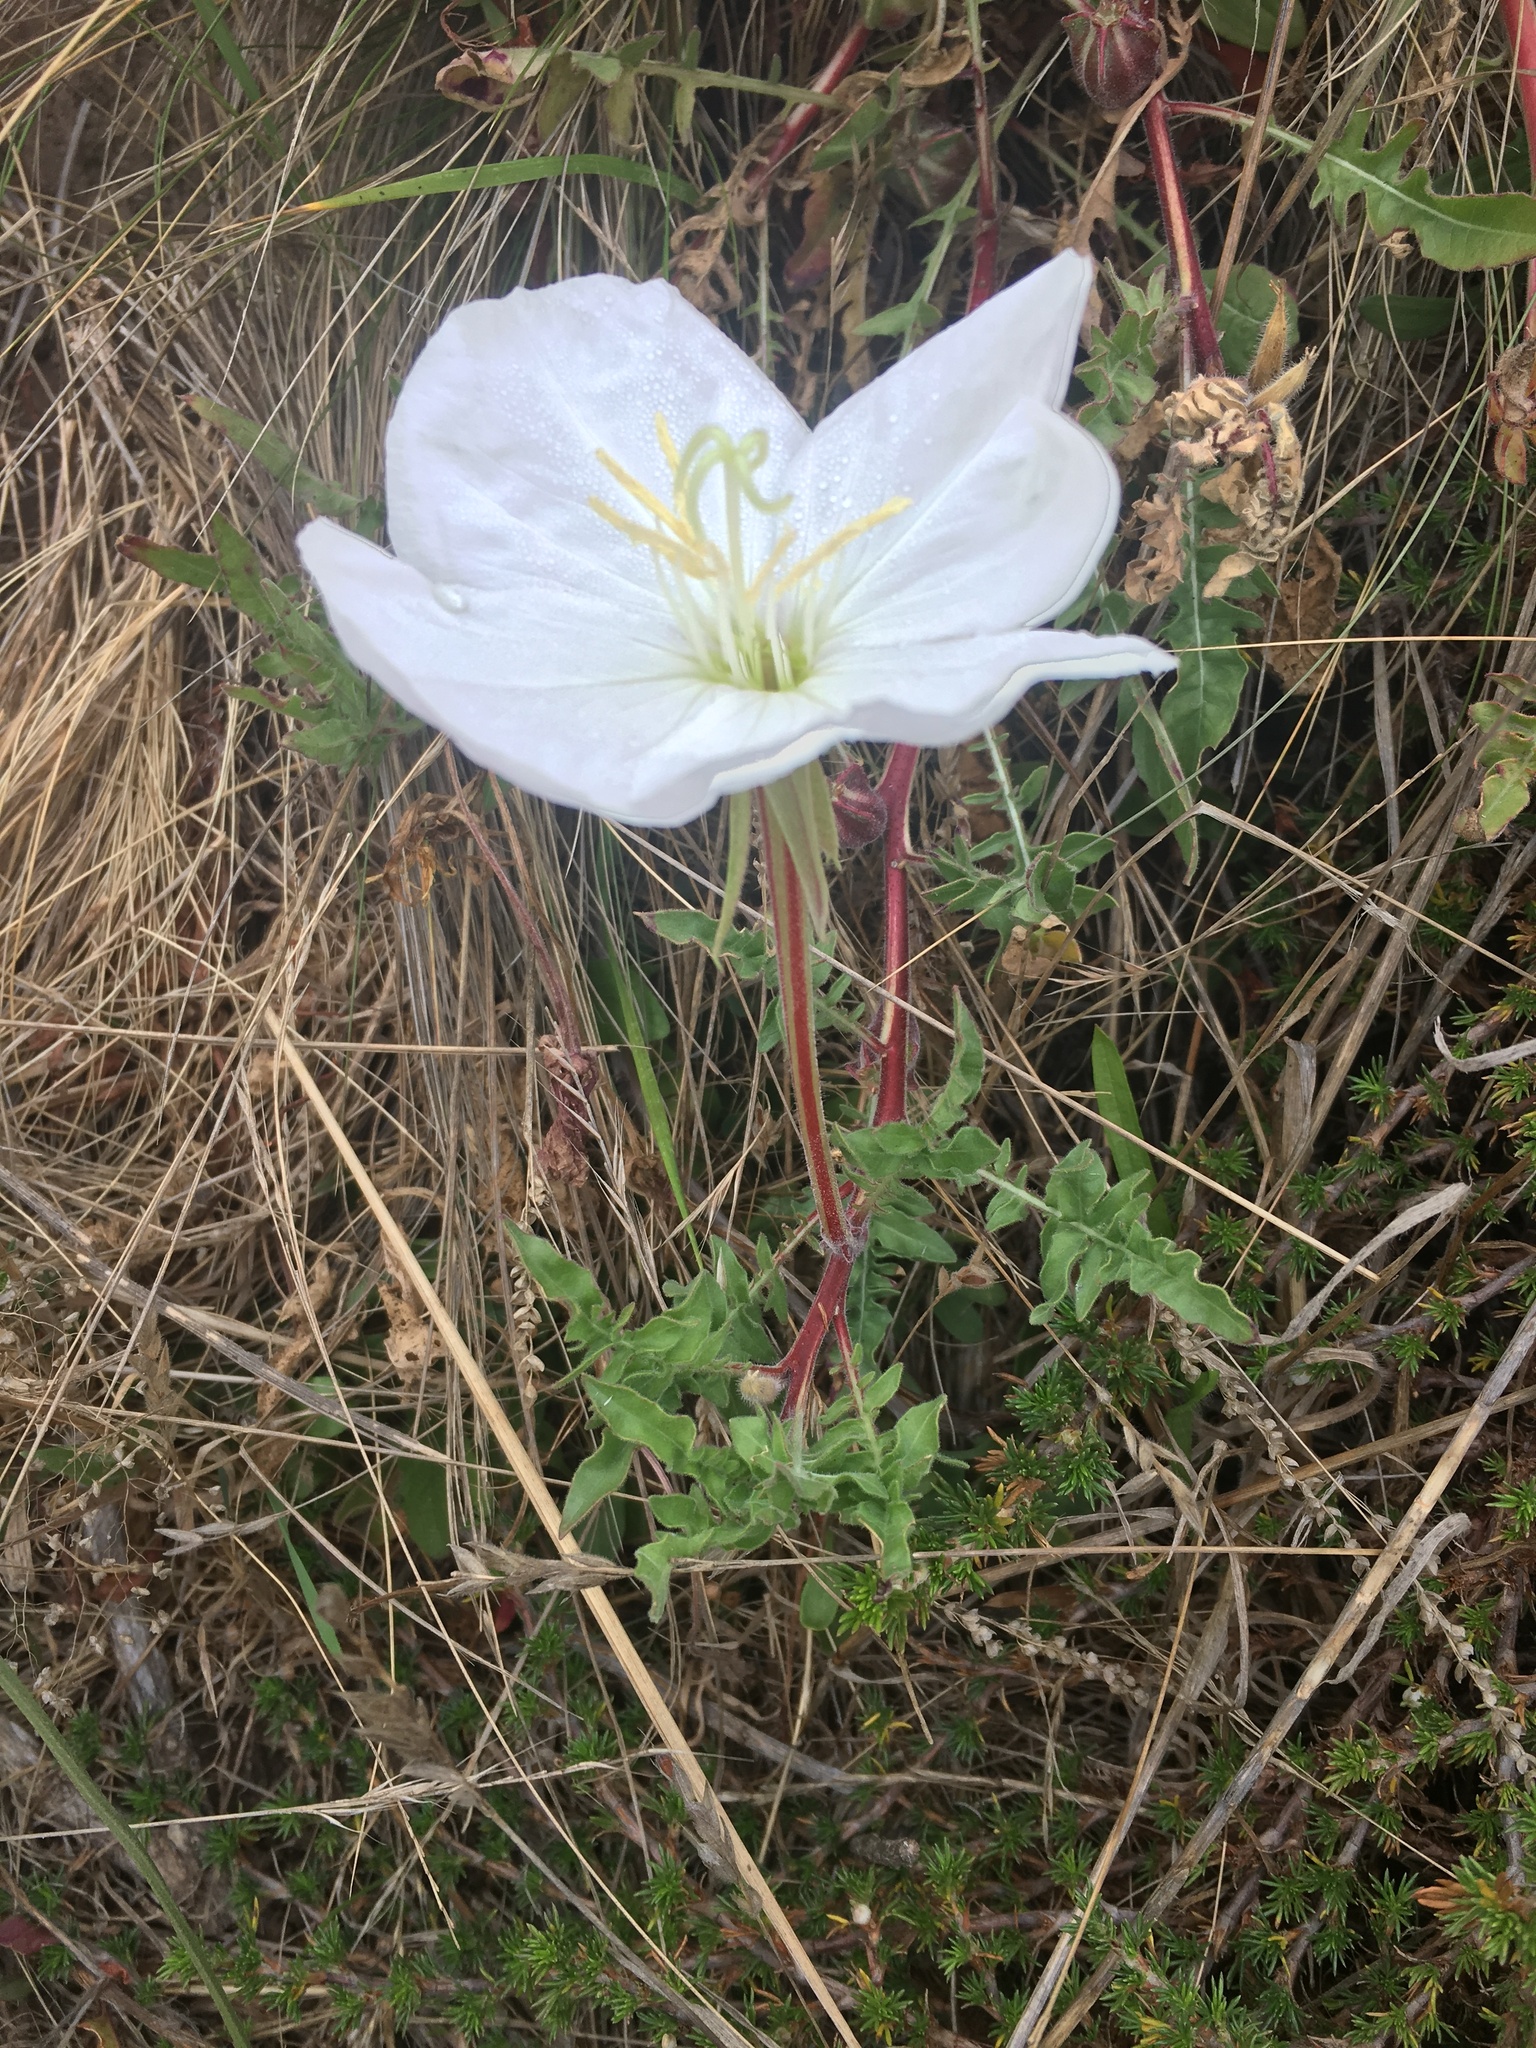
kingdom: Plantae
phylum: Tracheophyta
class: Magnoliopsida
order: Myrtales
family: Onagraceae
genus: Oenothera
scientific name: Oenothera acaulis
